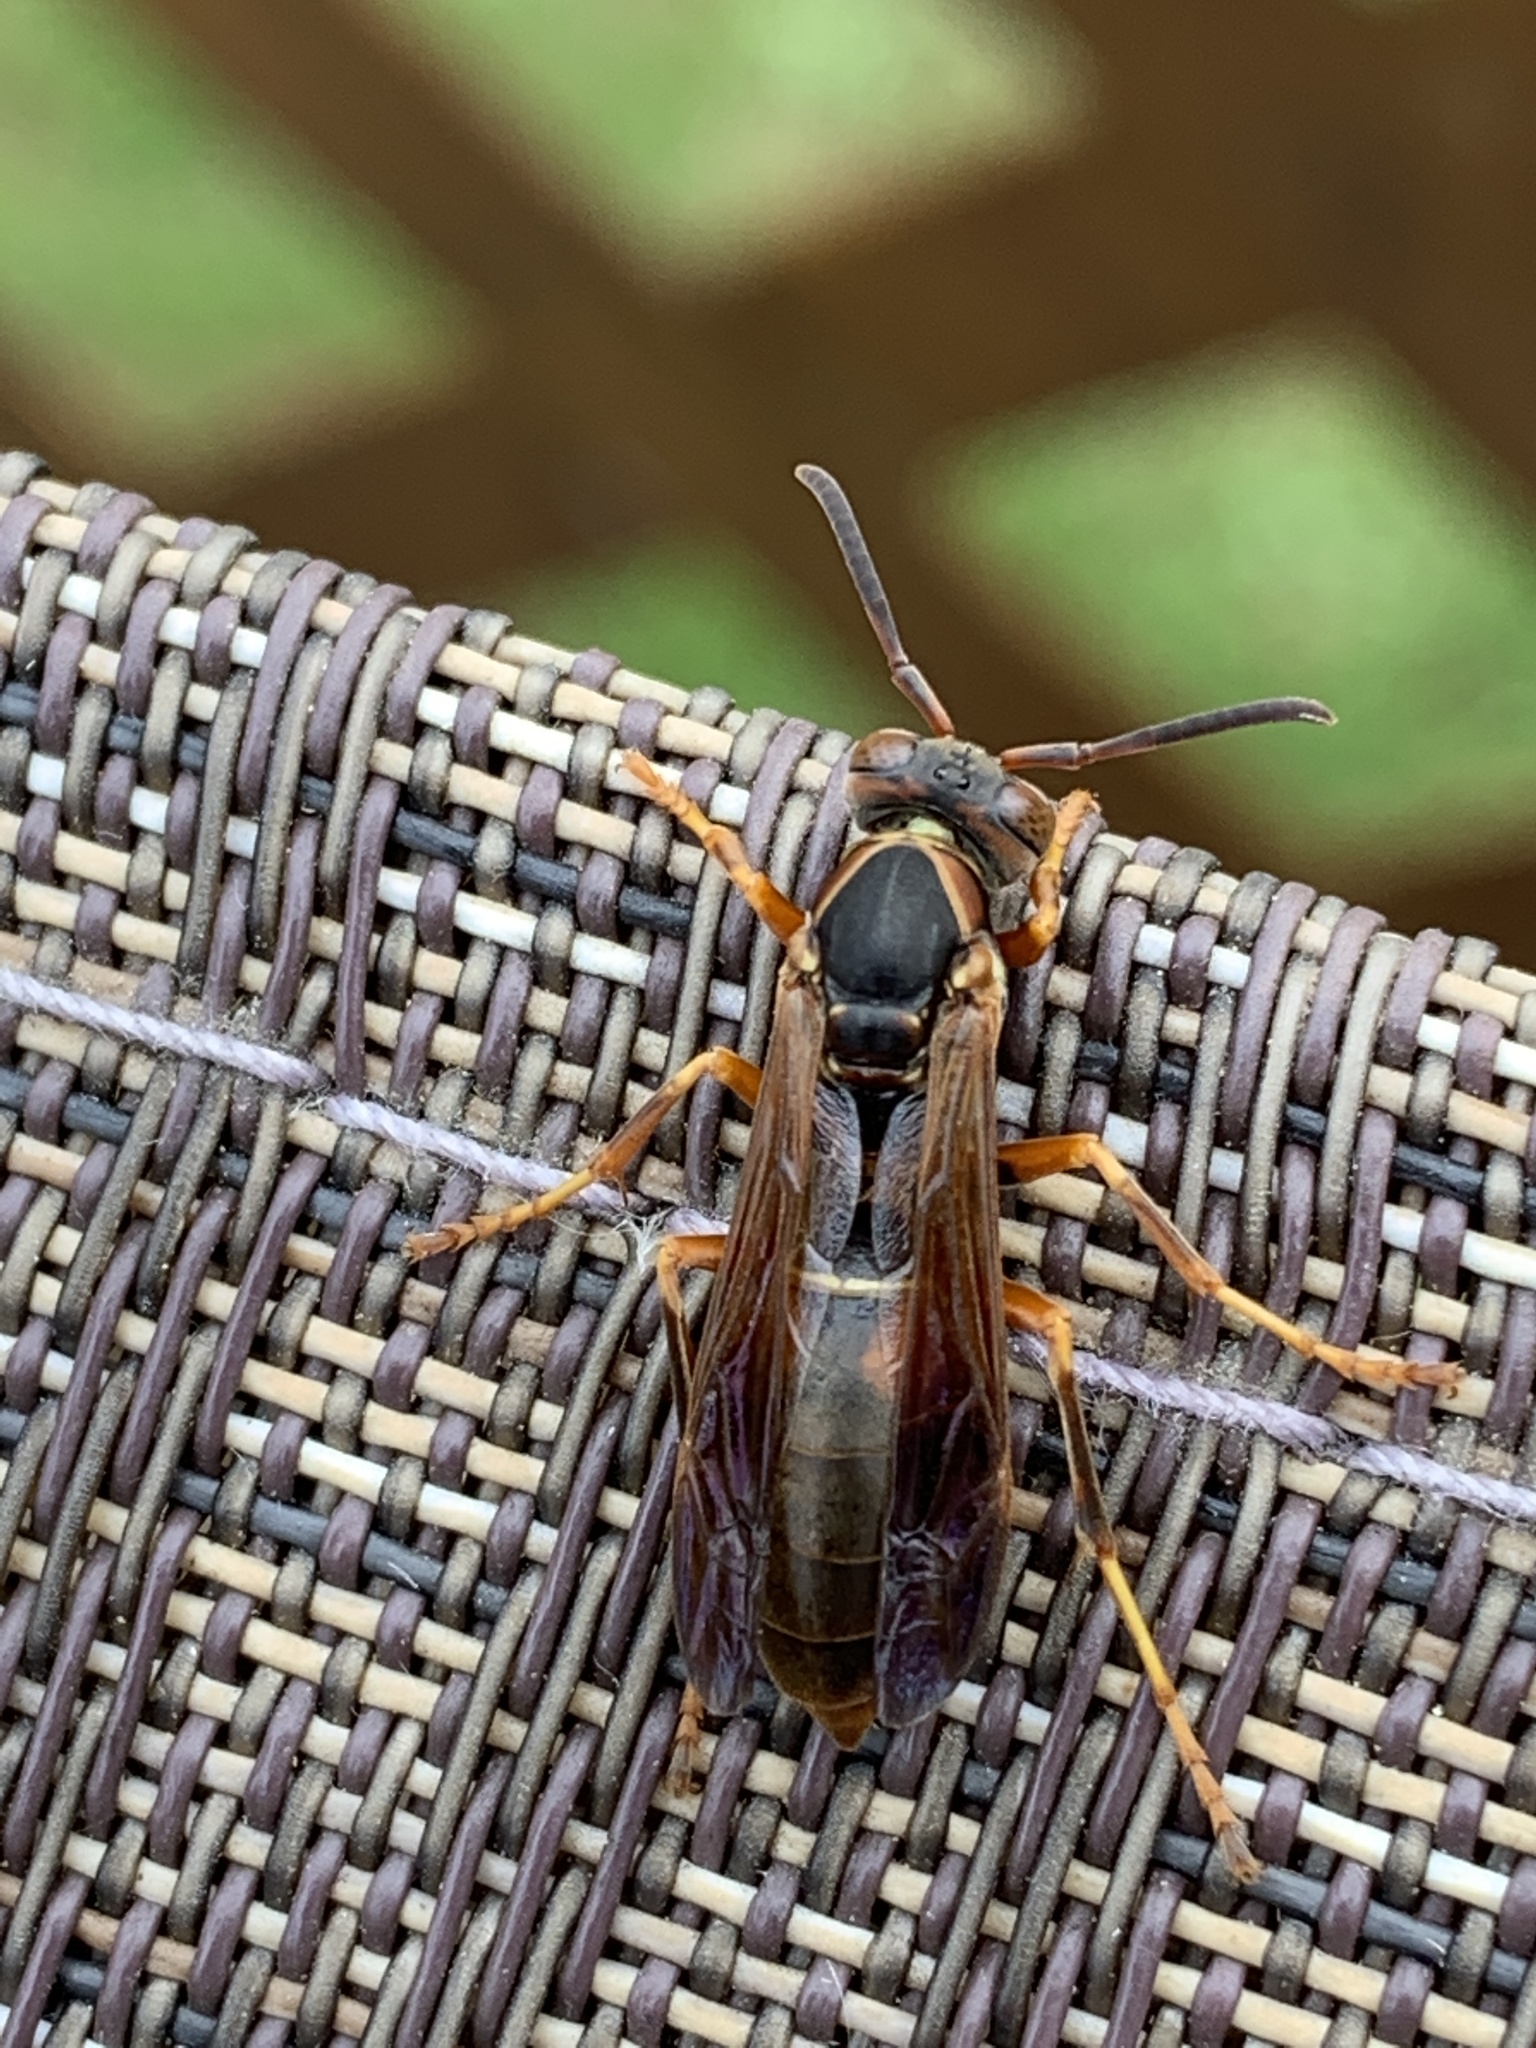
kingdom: Animalia
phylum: Arthropoda
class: Insecta
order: Hymenoptera
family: Eumenidae
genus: Polistes
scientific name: Polistes fuscatus
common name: Dark paper wasp
